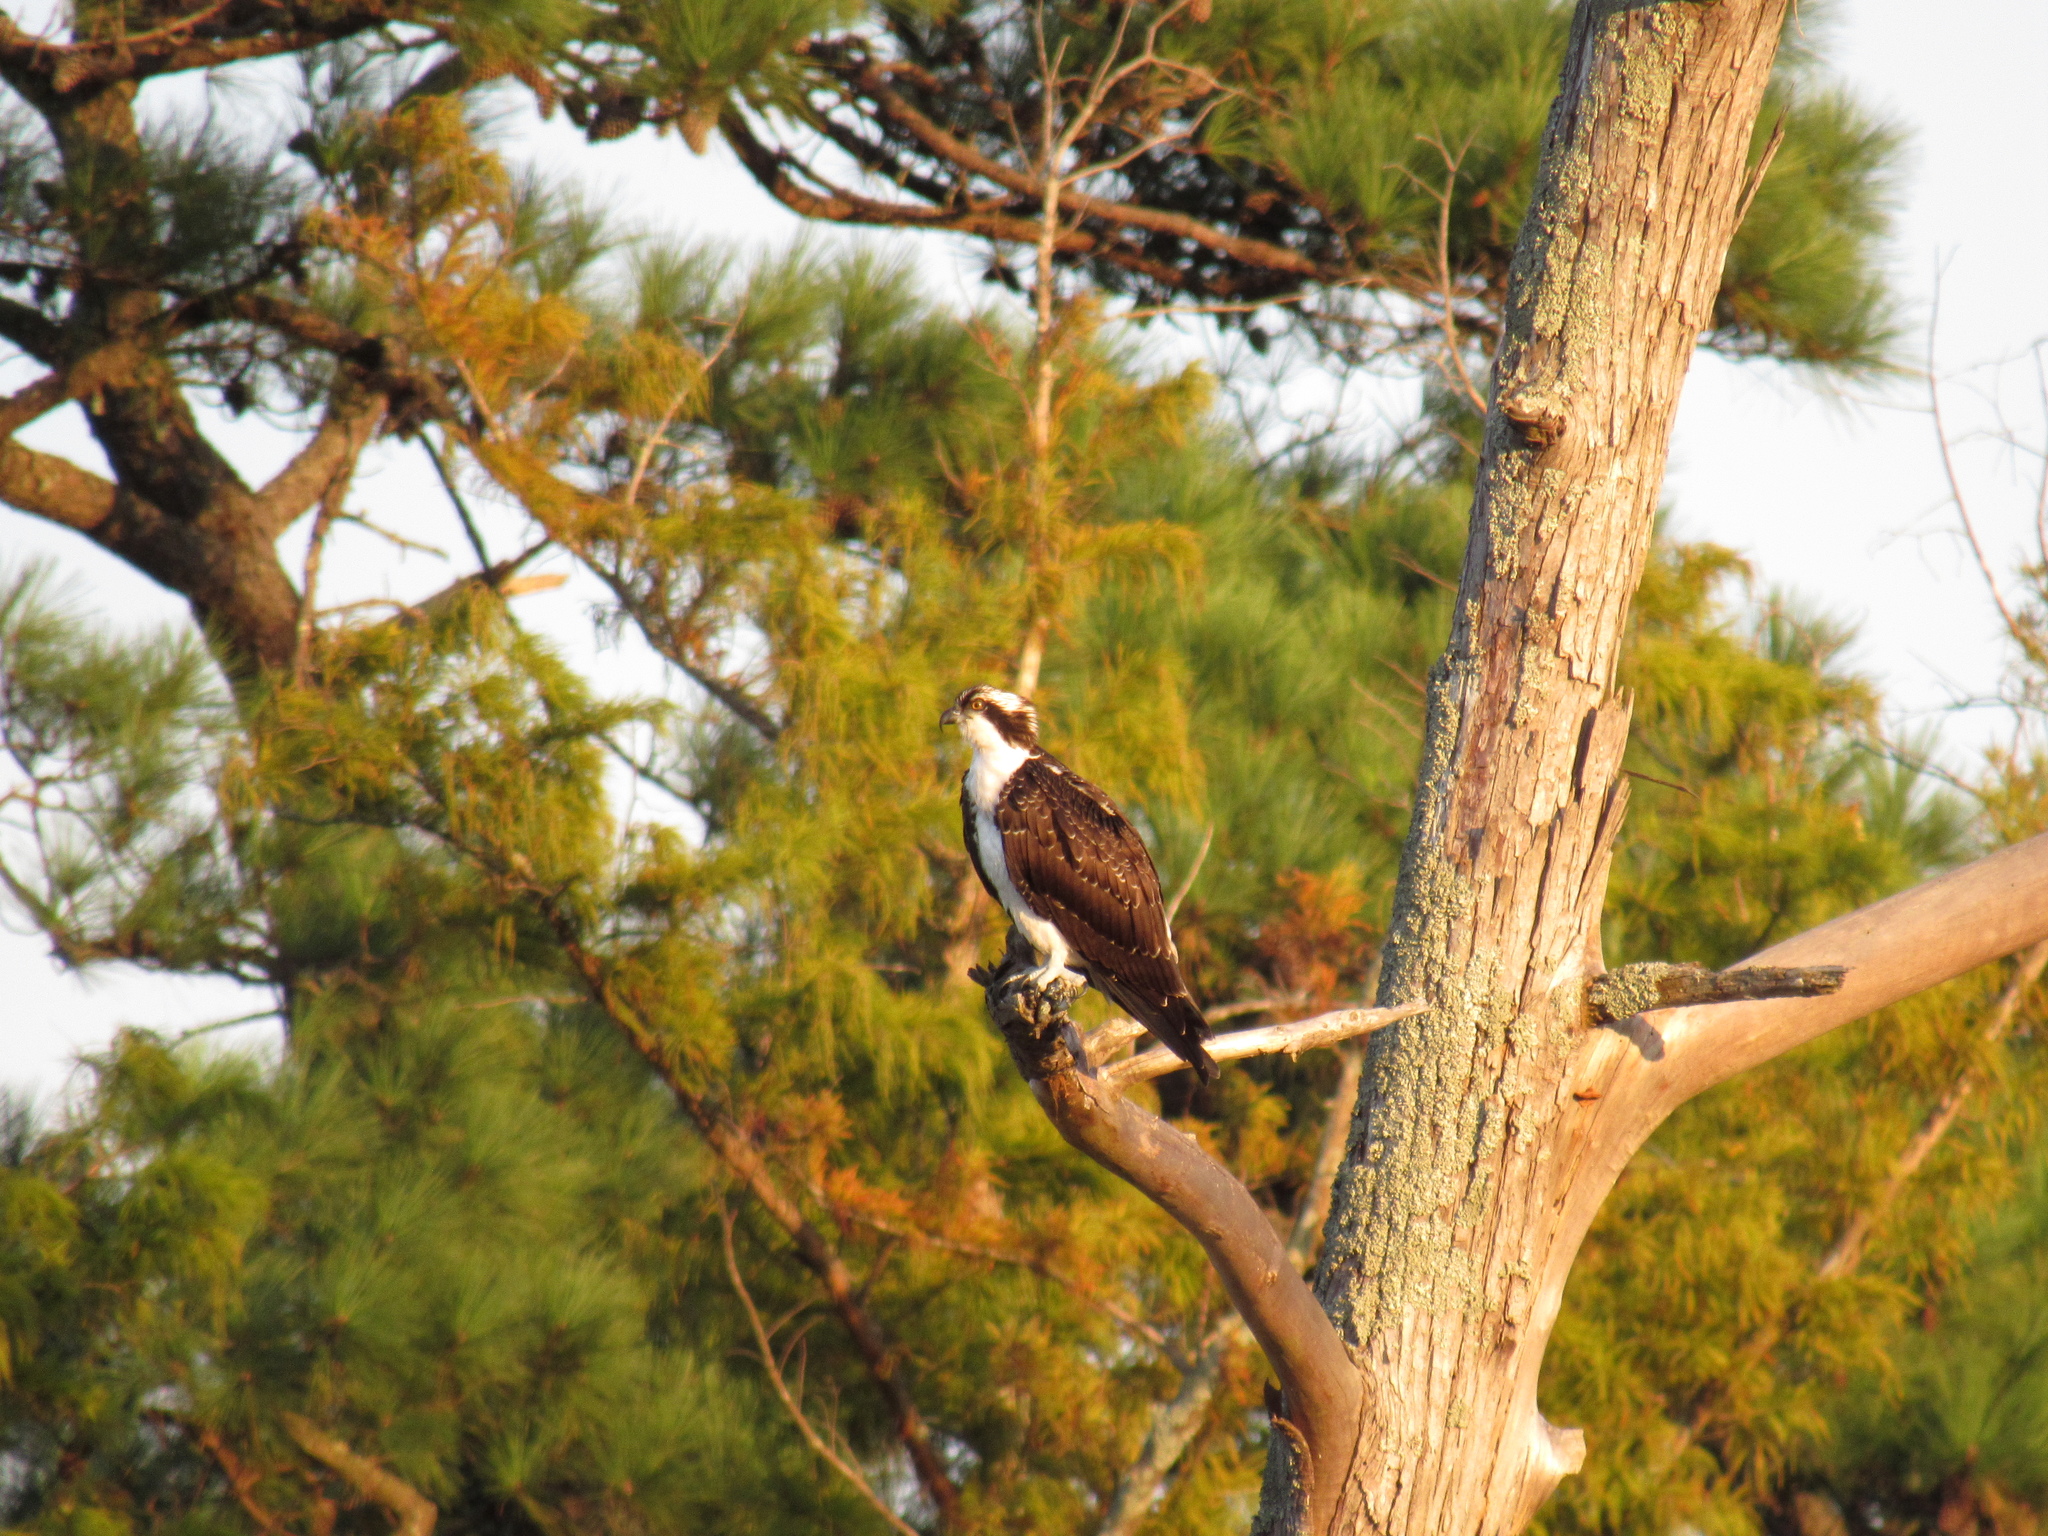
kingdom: Animalia
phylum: Chordata
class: Aves
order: Accipitriformes
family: Pandionidae
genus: Pandion
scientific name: Pandion haliaetus
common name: Osprey
